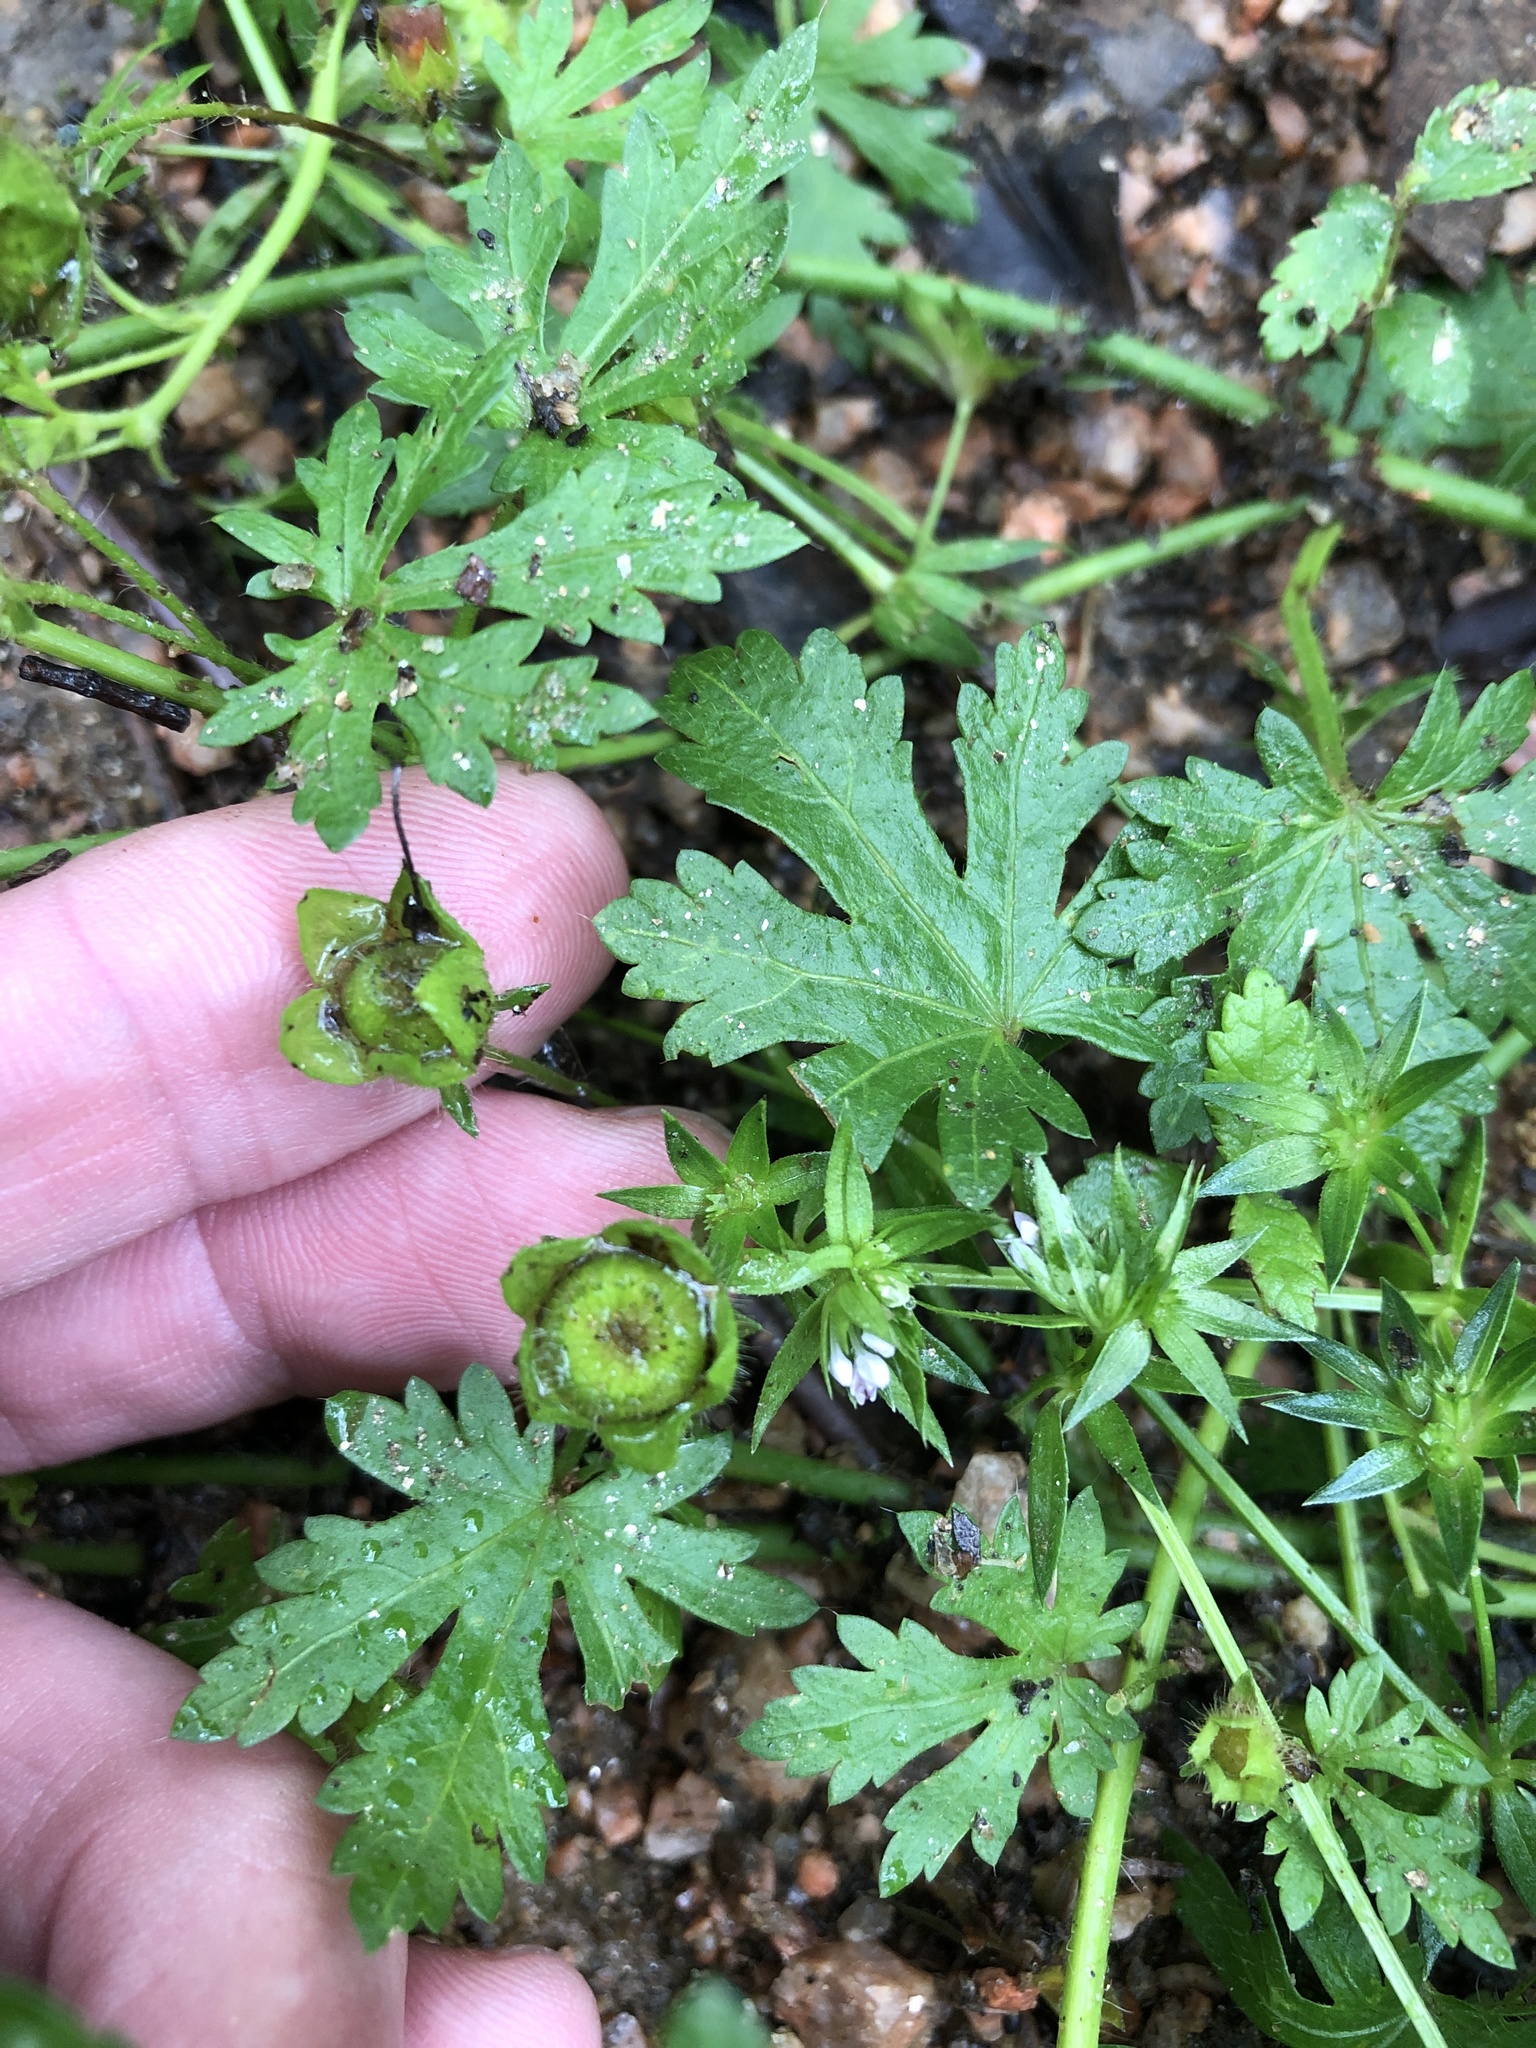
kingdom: Plantae
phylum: Tracheophyta
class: Magnoliopsida
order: Malvales
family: Malvaceae
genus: Modiola
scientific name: Modiola caroliniana
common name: Carolina bristlemallow
